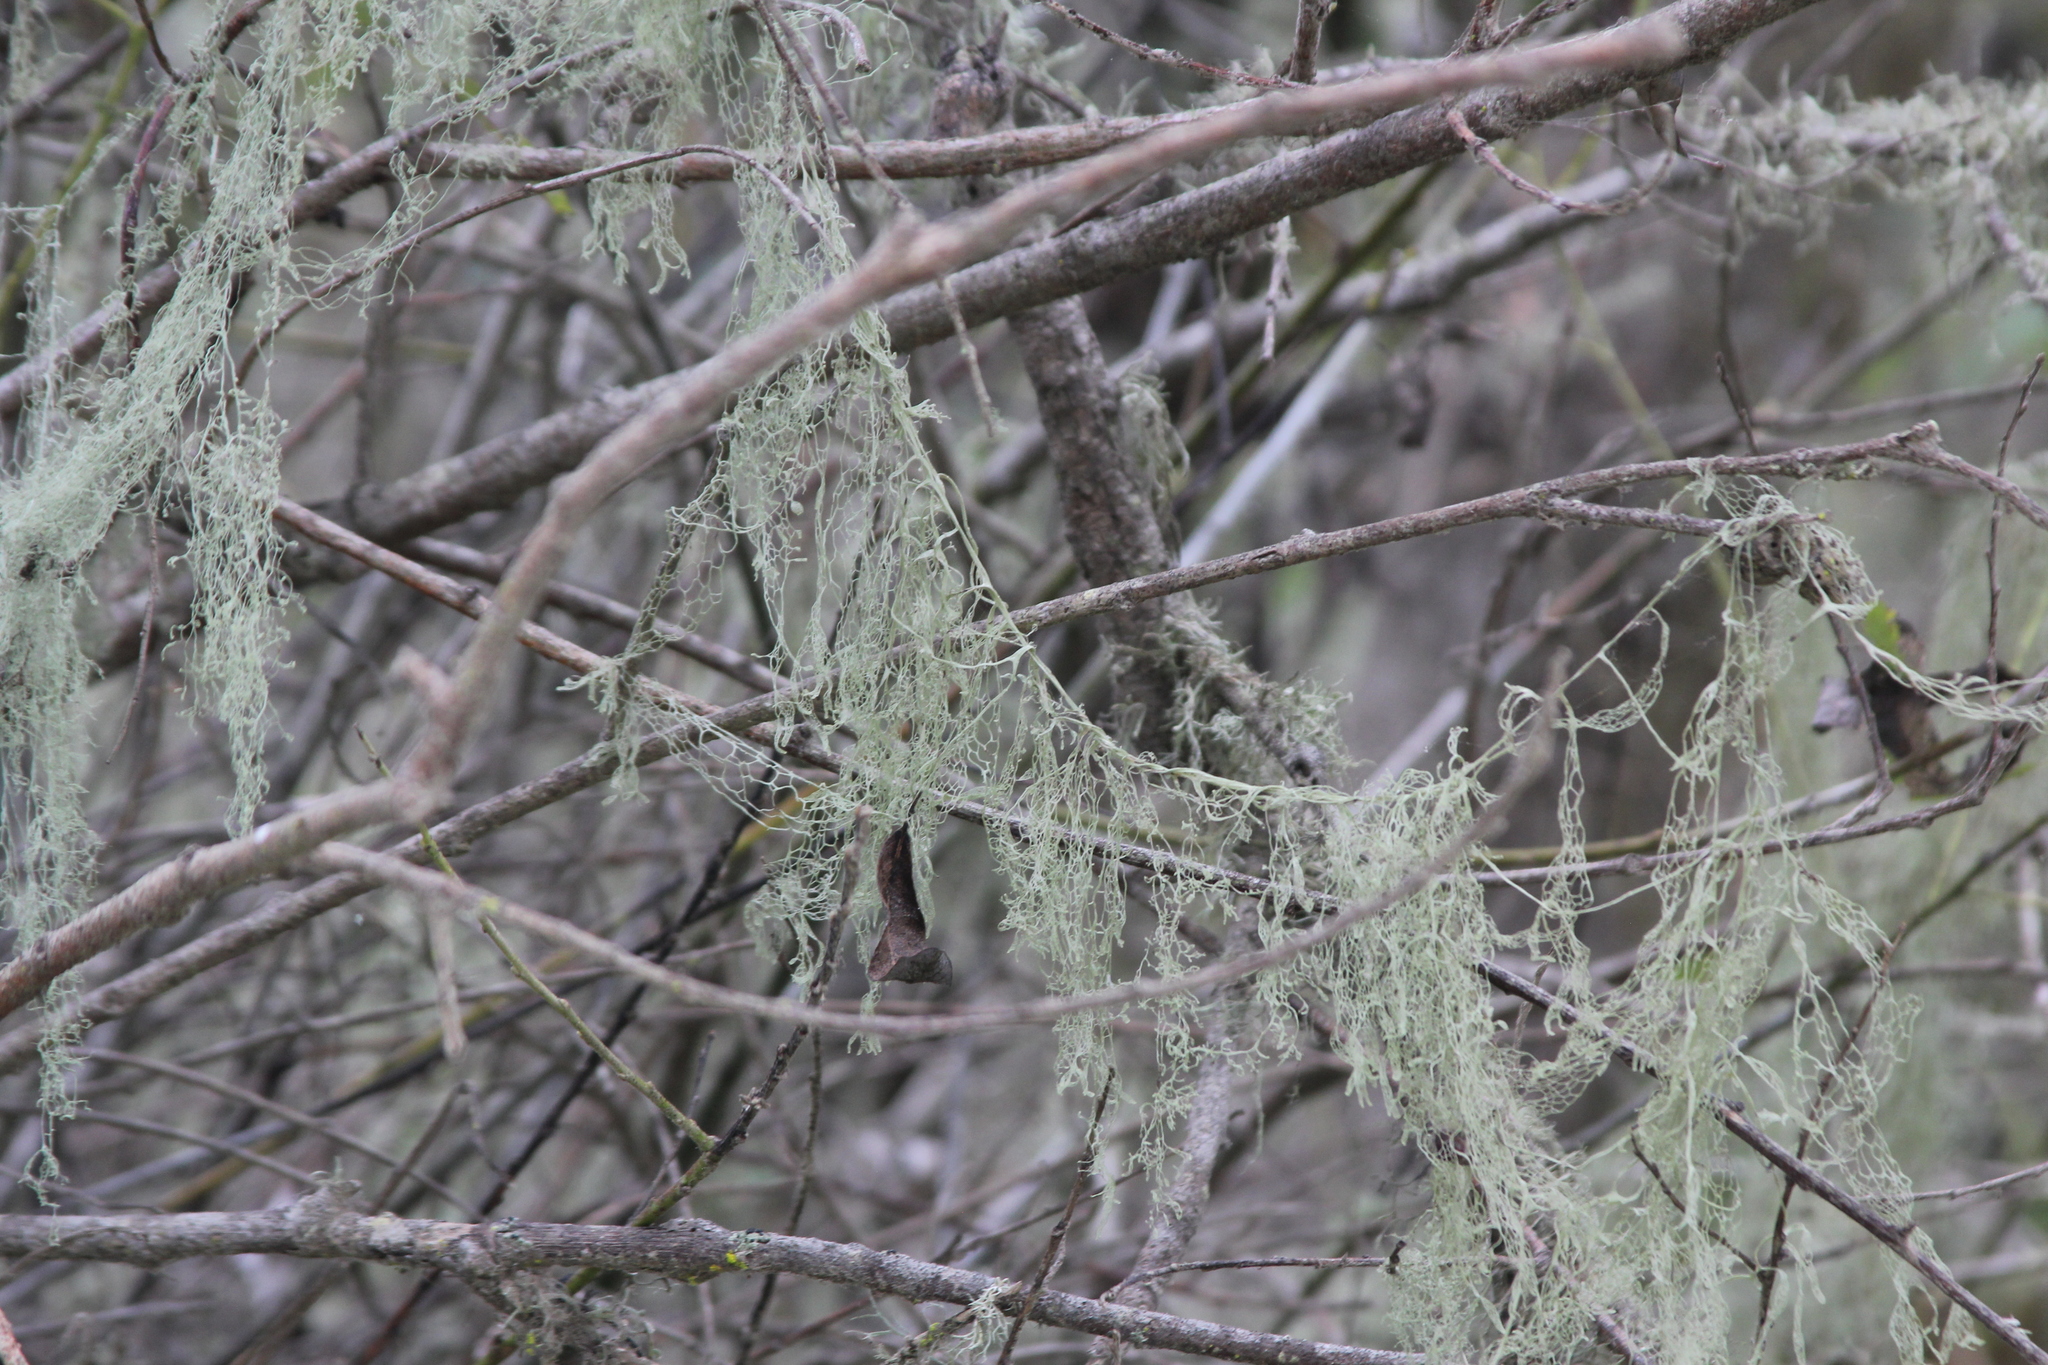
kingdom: Fungi
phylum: Ascomycota
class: Lecanoromycetes
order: Lecanorales
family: Ramalinaceae
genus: Ramalina
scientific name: Ramalina menziesii
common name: Lace lichen
